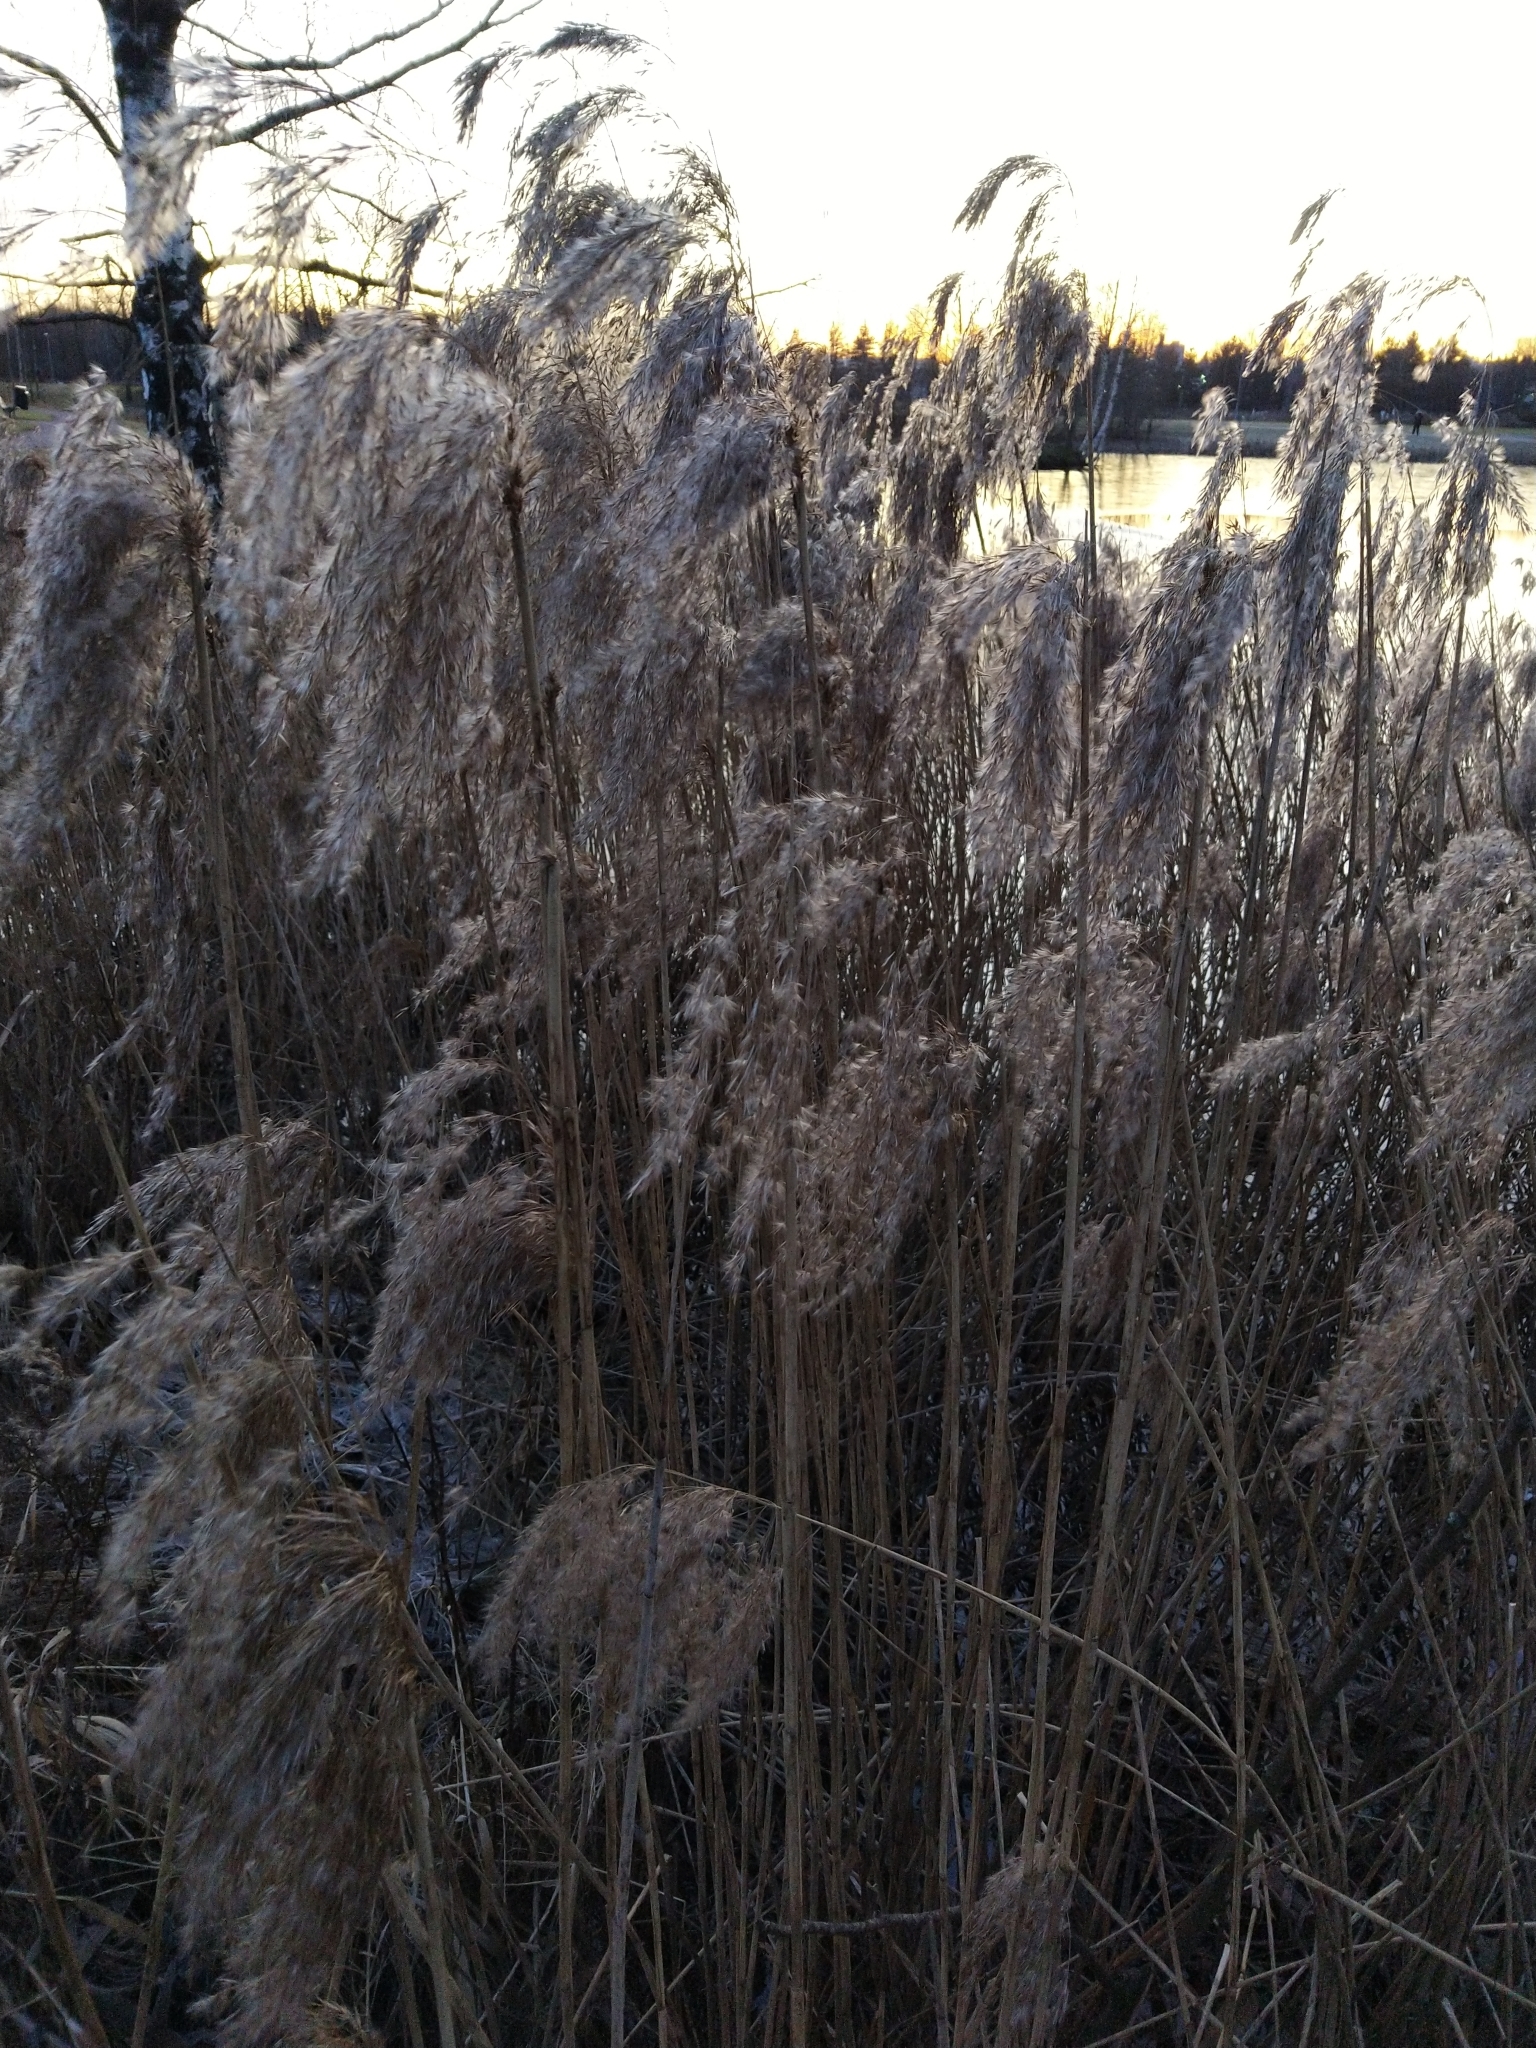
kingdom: Plantae
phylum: Tracheophyta
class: Liliopsida
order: Poales
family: Poaceae
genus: Phragmites
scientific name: Phragmites australis
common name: Common reed
